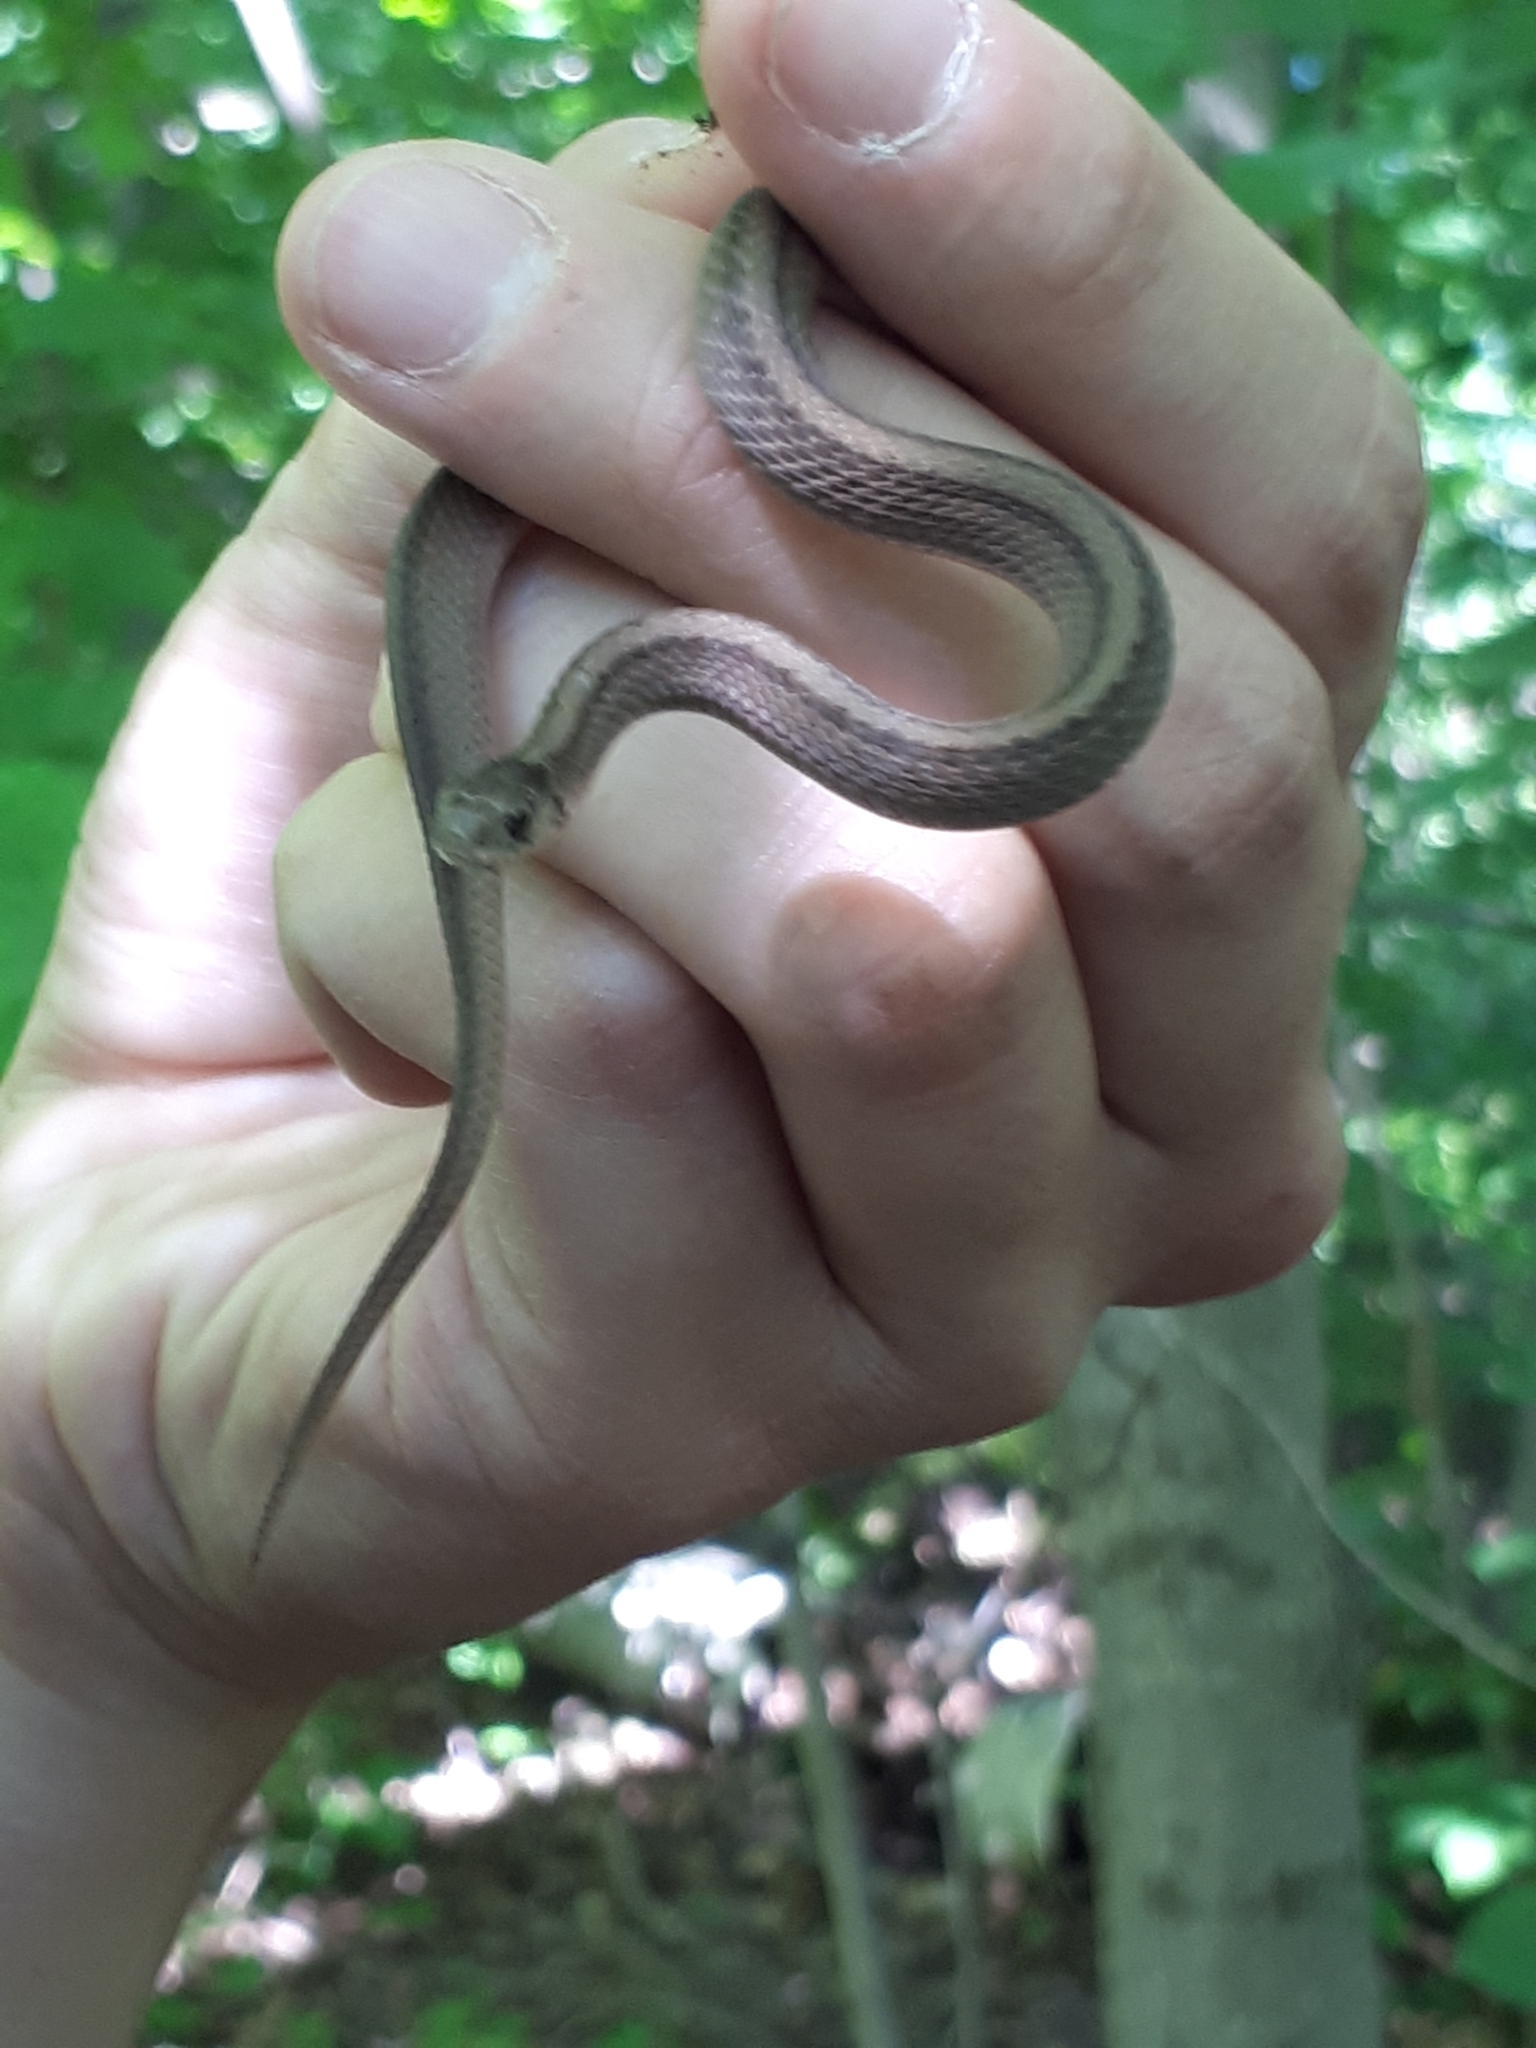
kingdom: Animalia
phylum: Chordata
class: Squamata
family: Colubridae
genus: Storeria
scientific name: Storeria dekayi
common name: (dekay’s) brown snake
